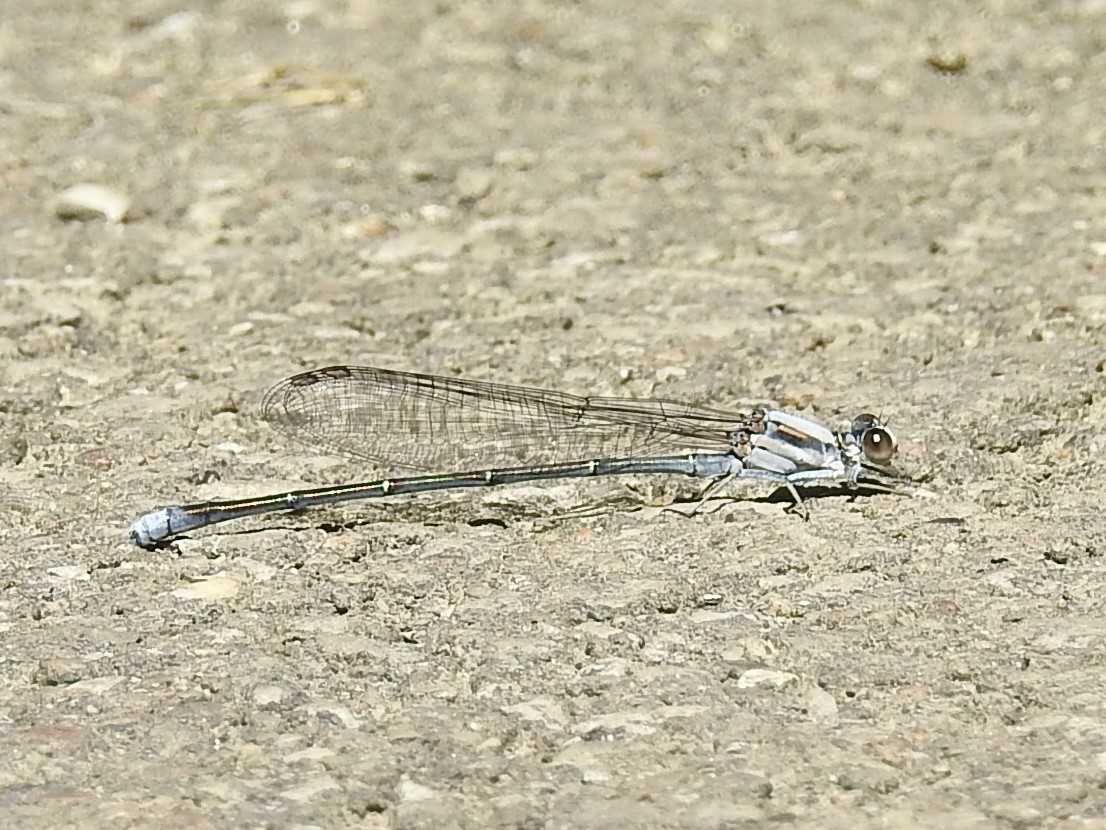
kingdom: Animalia
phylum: Arthropoda
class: Insecta
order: Odonata
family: Coenagrionidae
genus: Argia
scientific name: Argia moesta
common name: Powdered dancer
